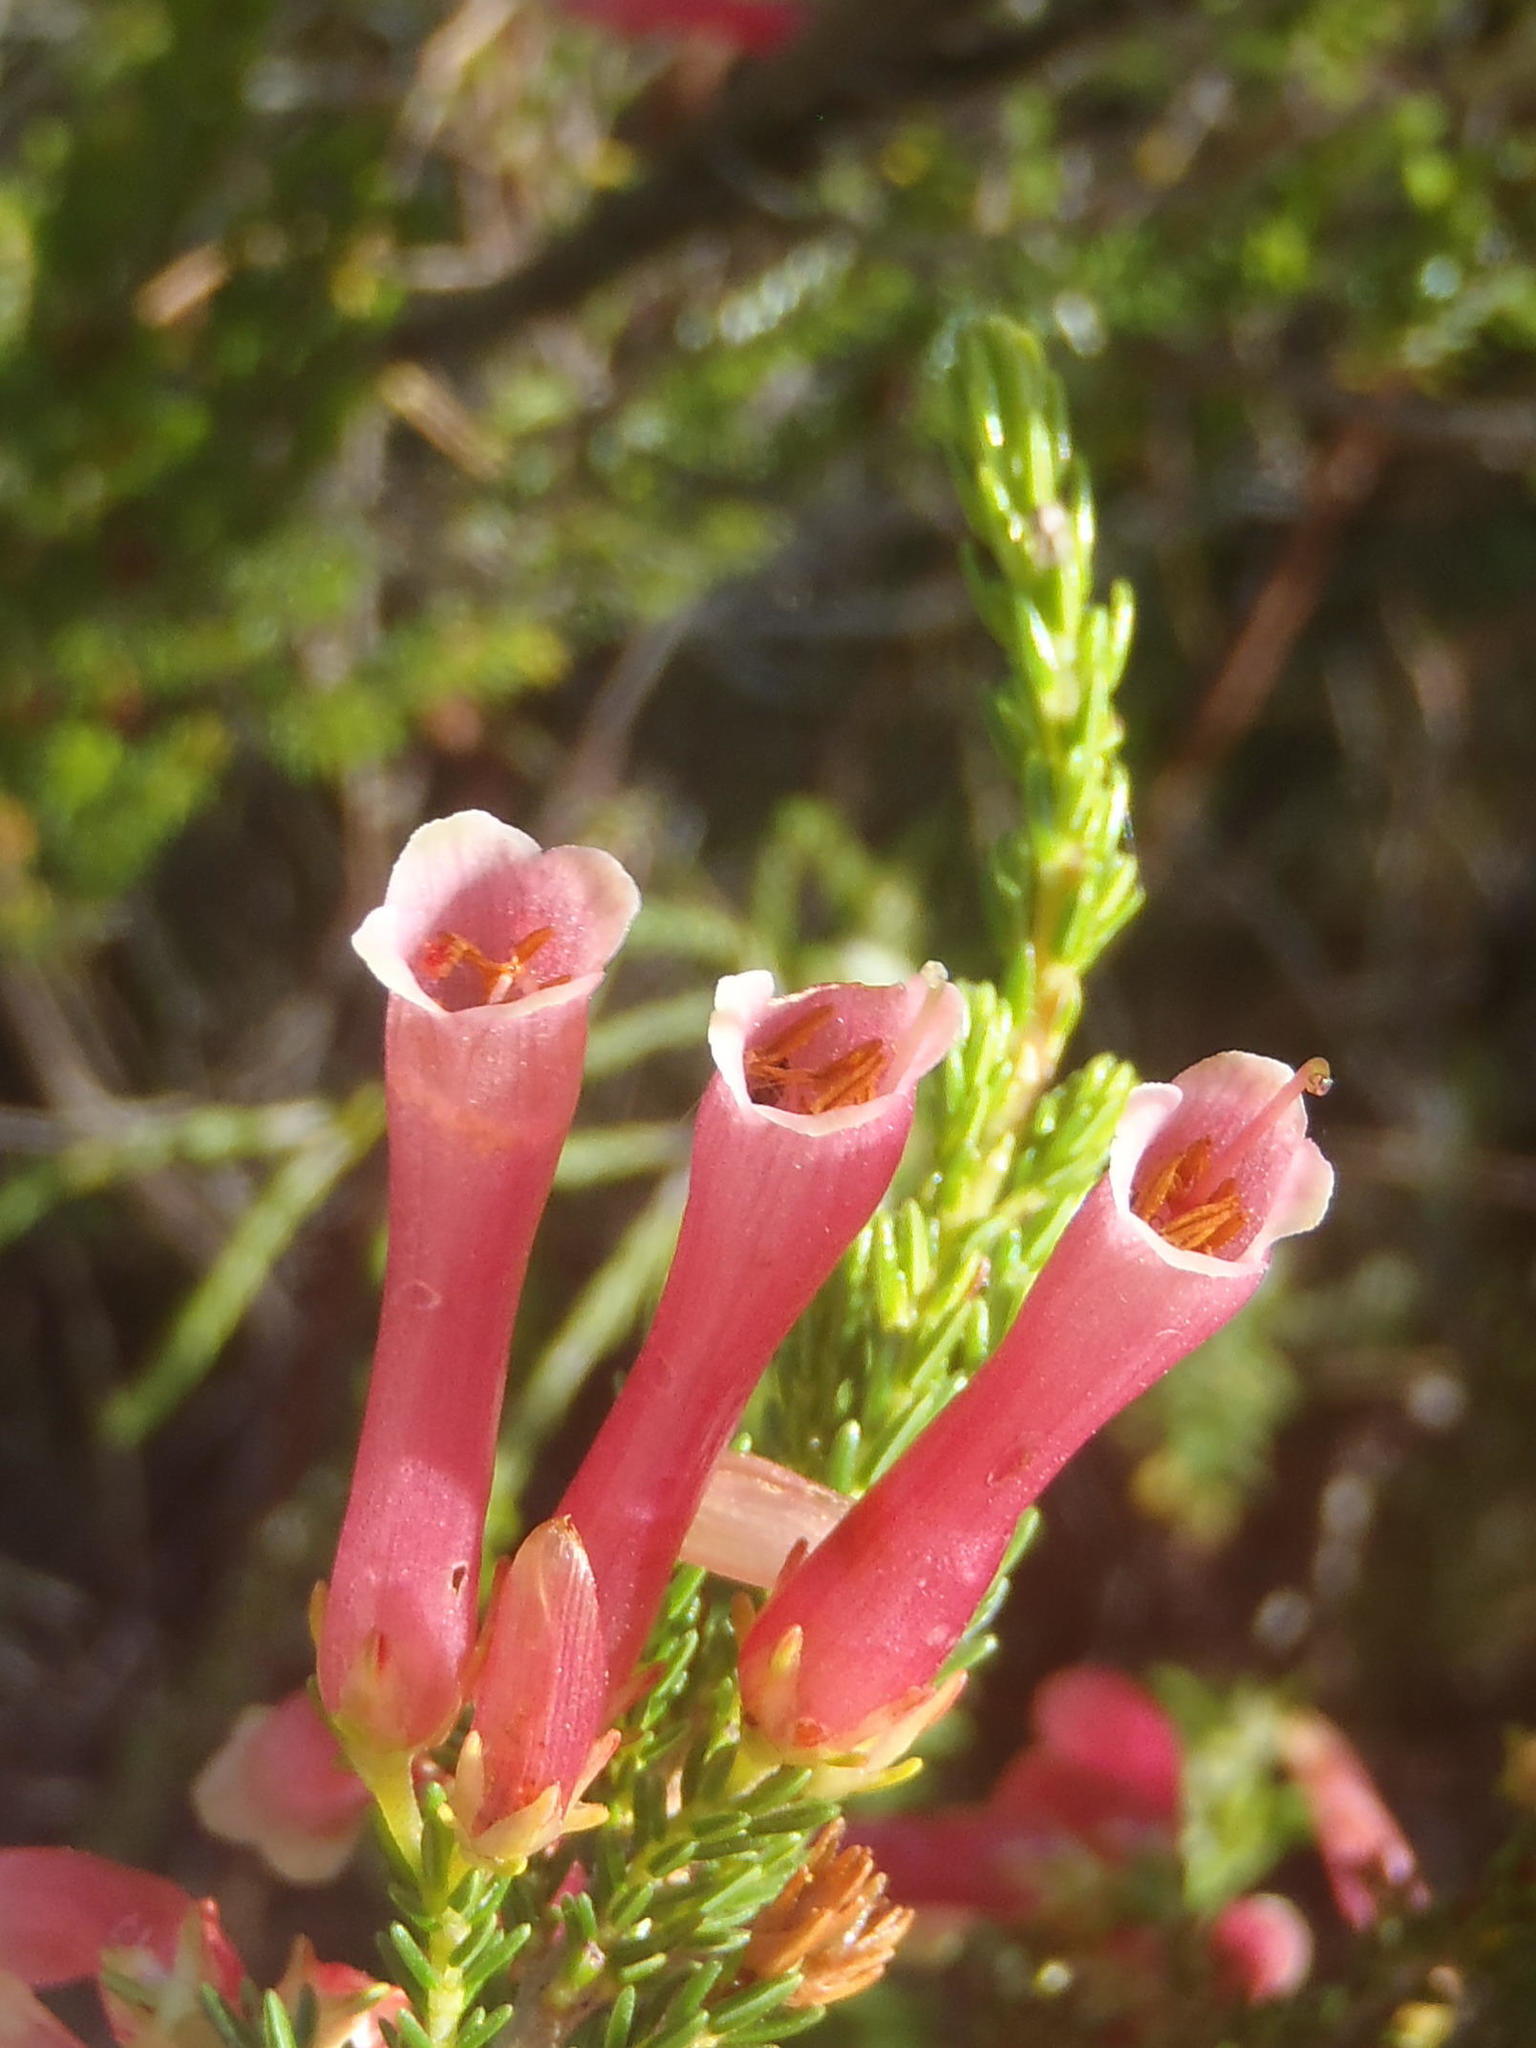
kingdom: Plantae
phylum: Tracheophyta
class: Magnoliopsida
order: Ericales
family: Ericaceae
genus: Erica
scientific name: Erica discolor
